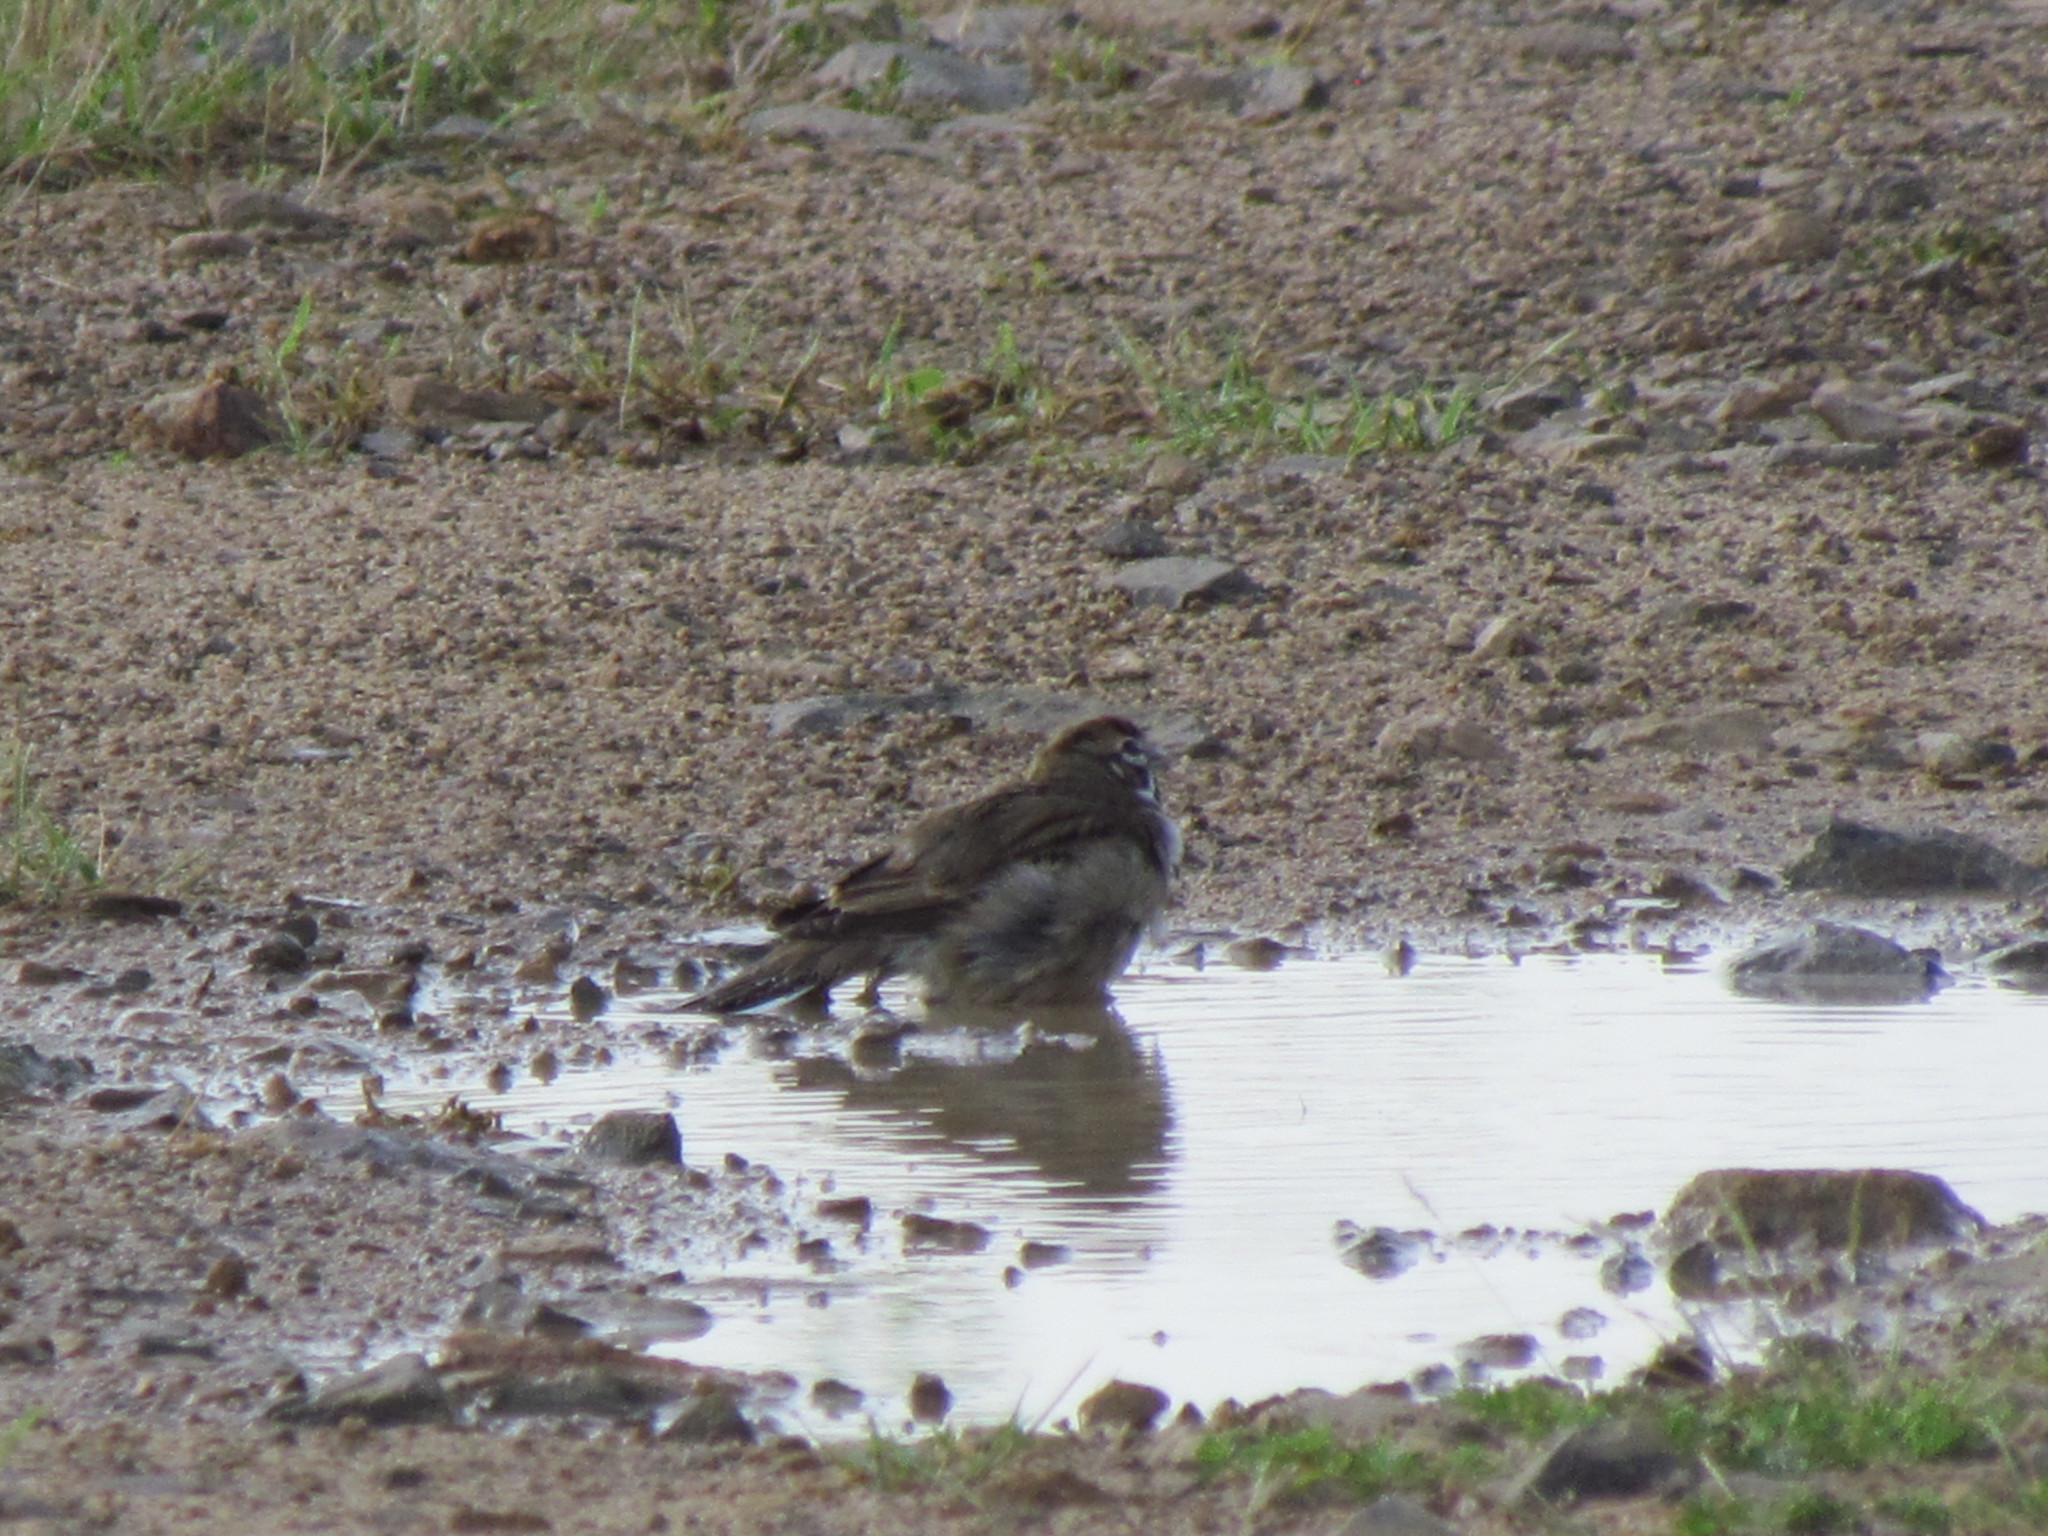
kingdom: Animalia
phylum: Chordata
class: Aves
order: Passeriformes
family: Passerellidae
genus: Chondestes
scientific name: Chondestes grammacus
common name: Lark sparrow
